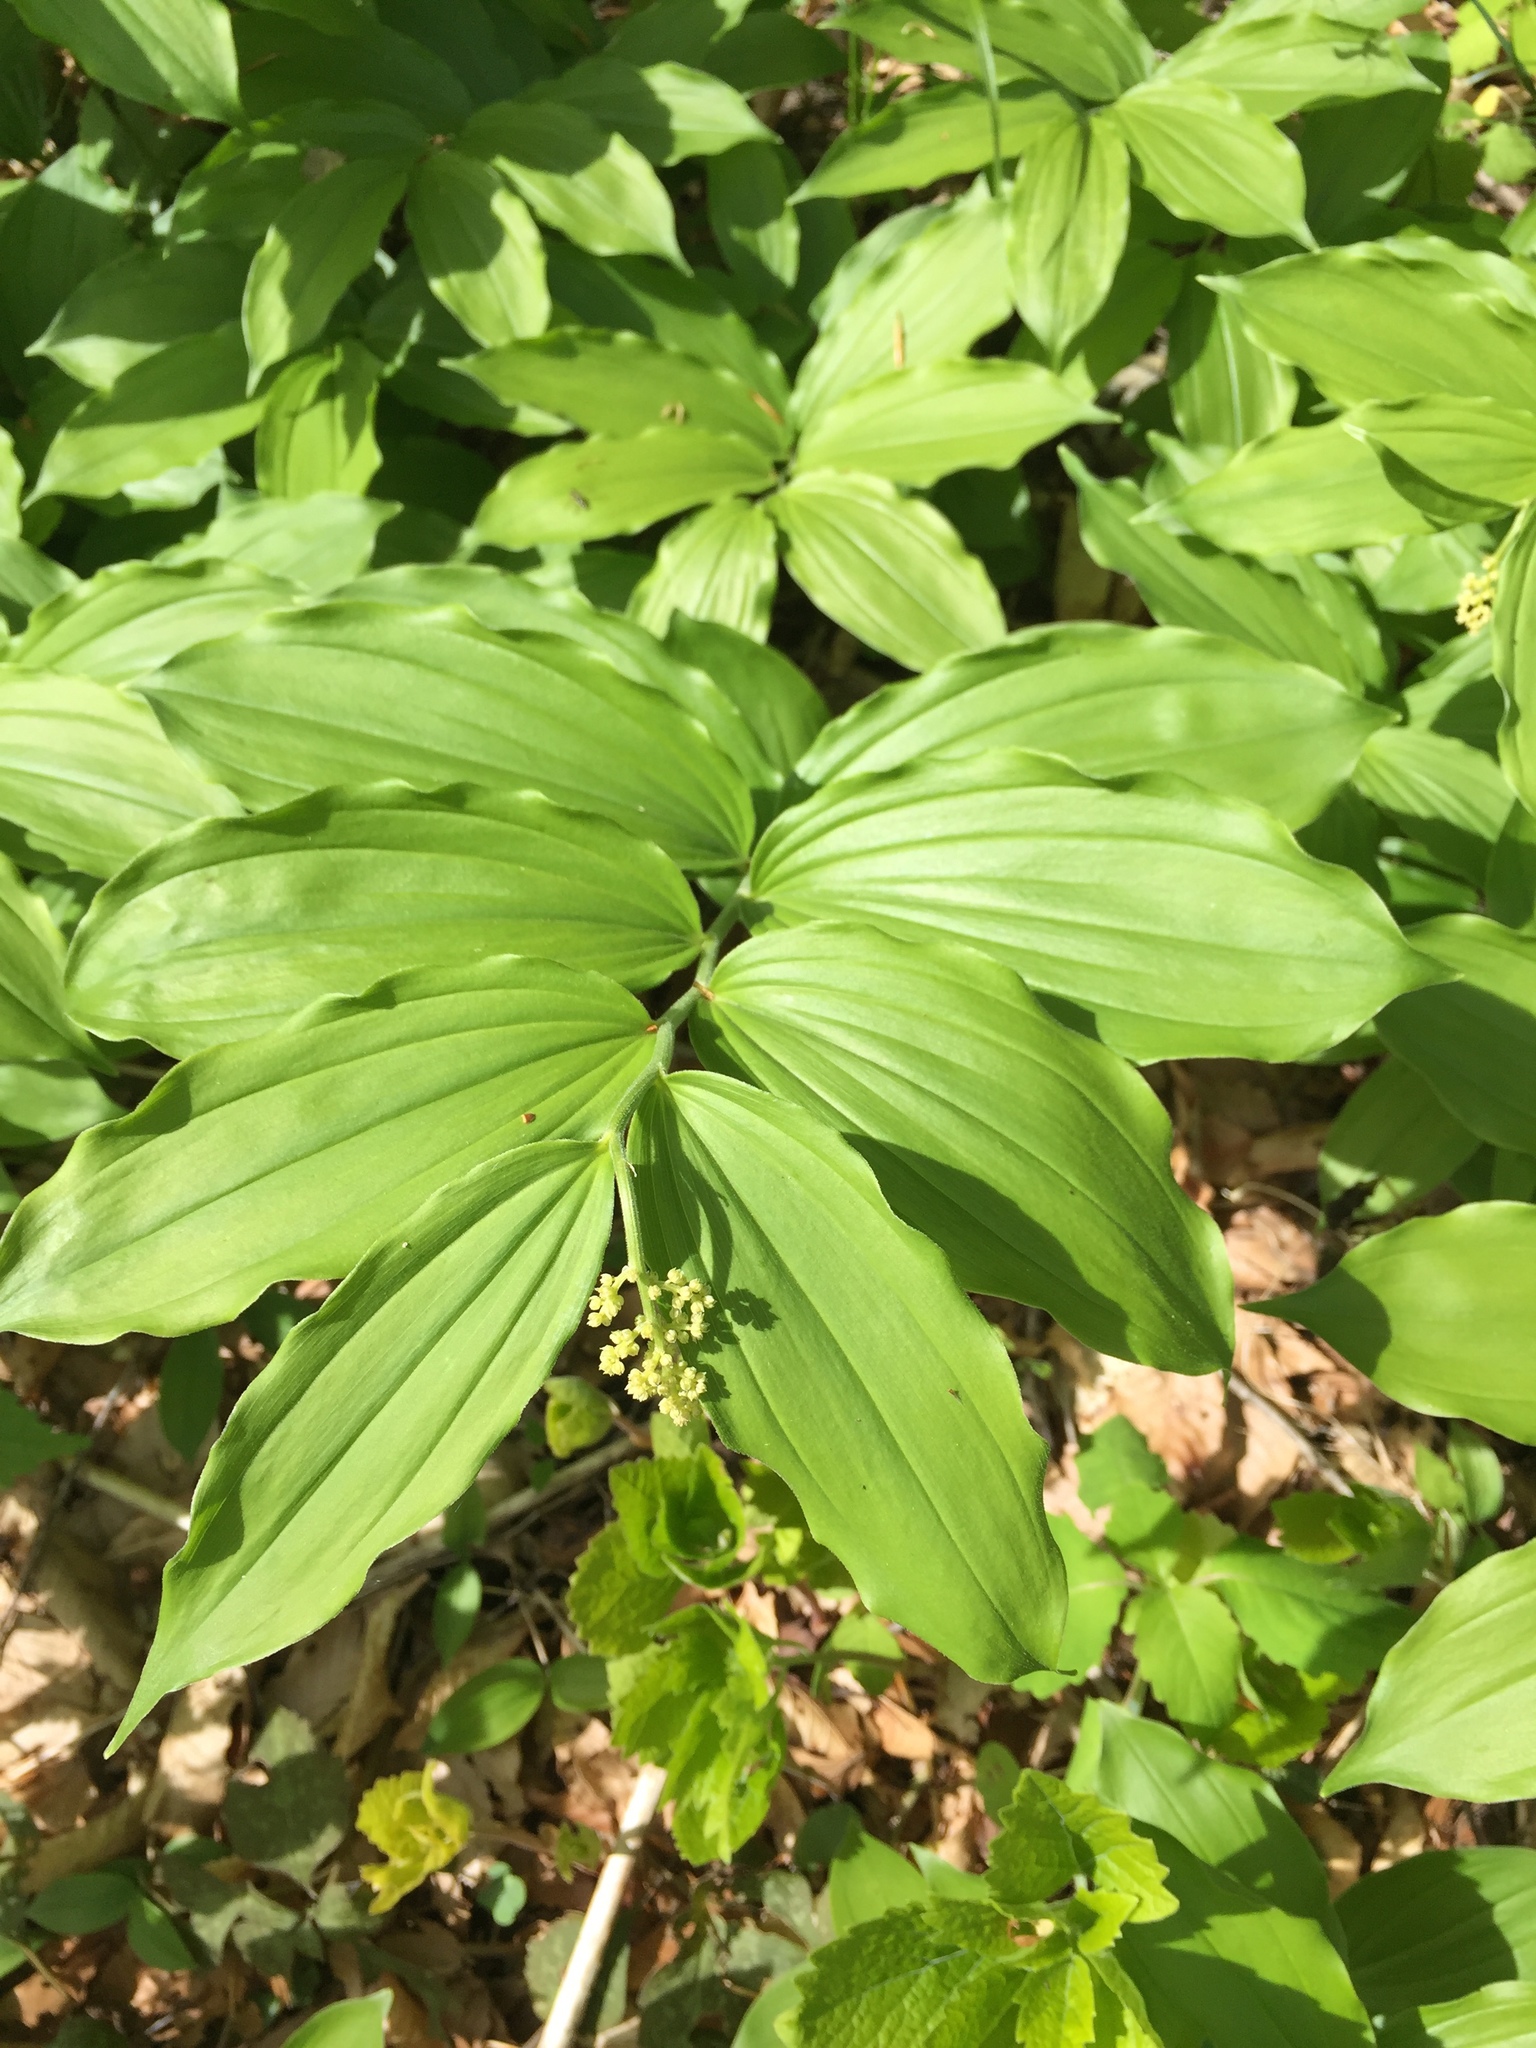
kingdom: Plantae
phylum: Tracheophyta
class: Liliopsida
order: Asparagales
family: Asparagaceae
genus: Maianthemum
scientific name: Maianthemum racemosum
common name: False spikenard
